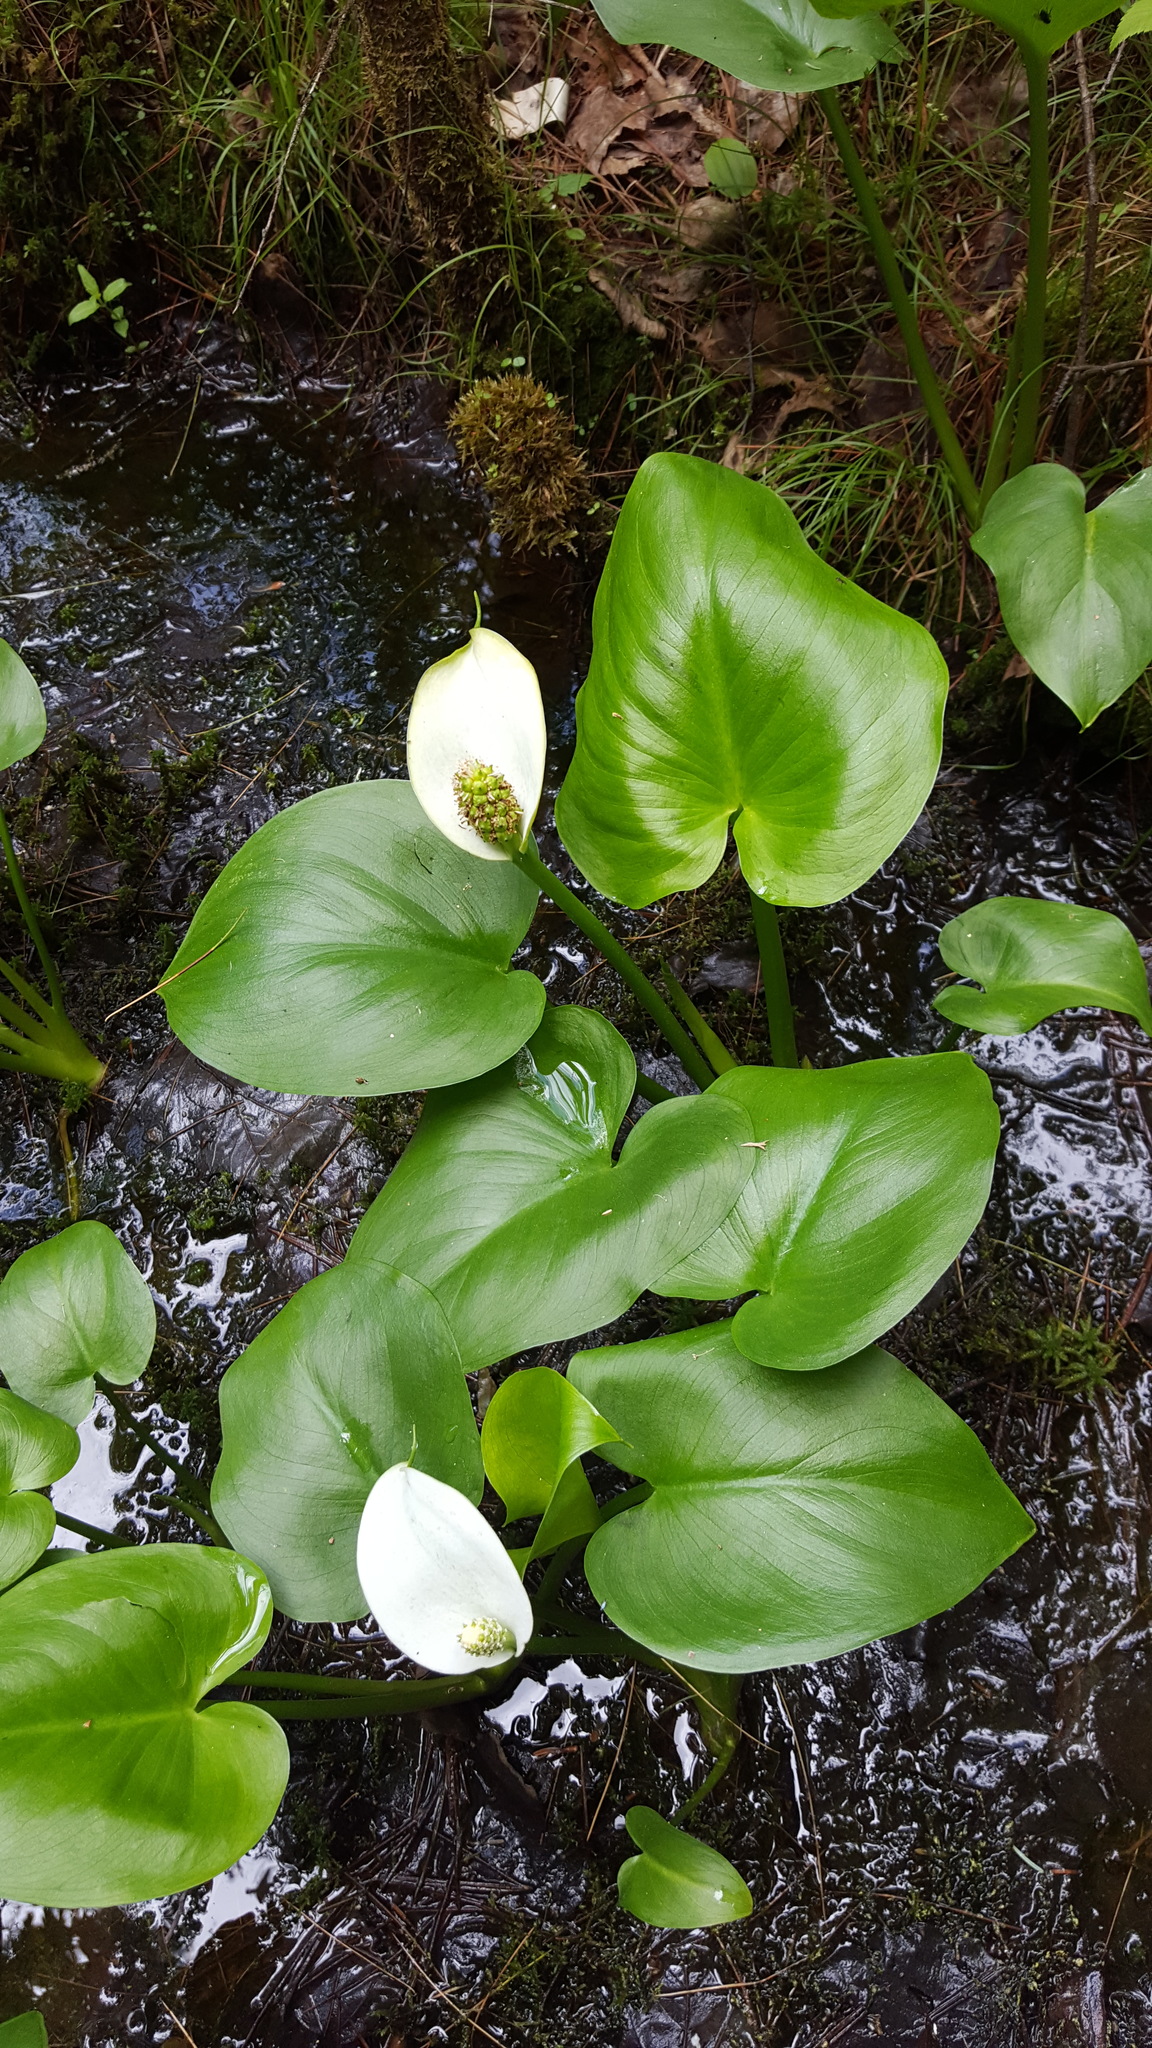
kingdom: Plantae
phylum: Tracheophyta
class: Liliopsida
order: Alismatales
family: Araceae
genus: Calla
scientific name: Calla palustris
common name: Bog arum
